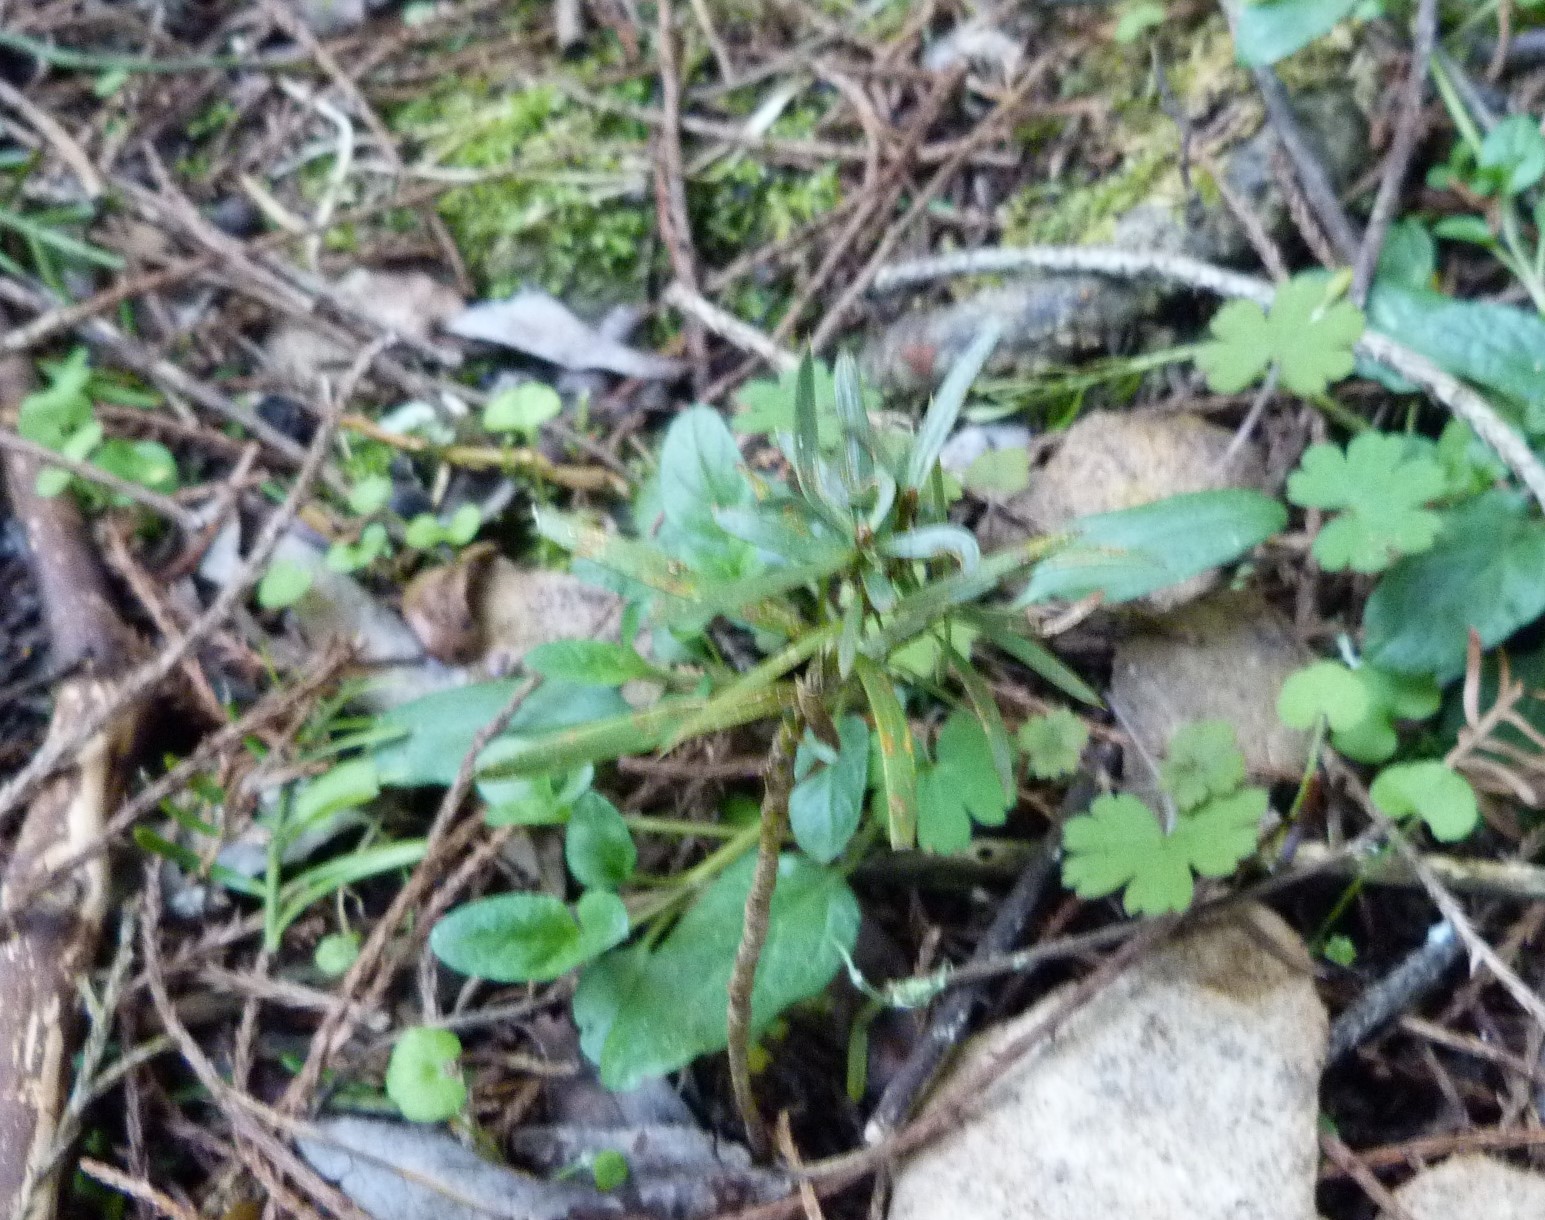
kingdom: Plantae
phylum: Tracheophyta
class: Pinopsida
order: Pinales
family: Podocarpaceae
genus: Podocarpus
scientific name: Podocarpus totara
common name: Totara
